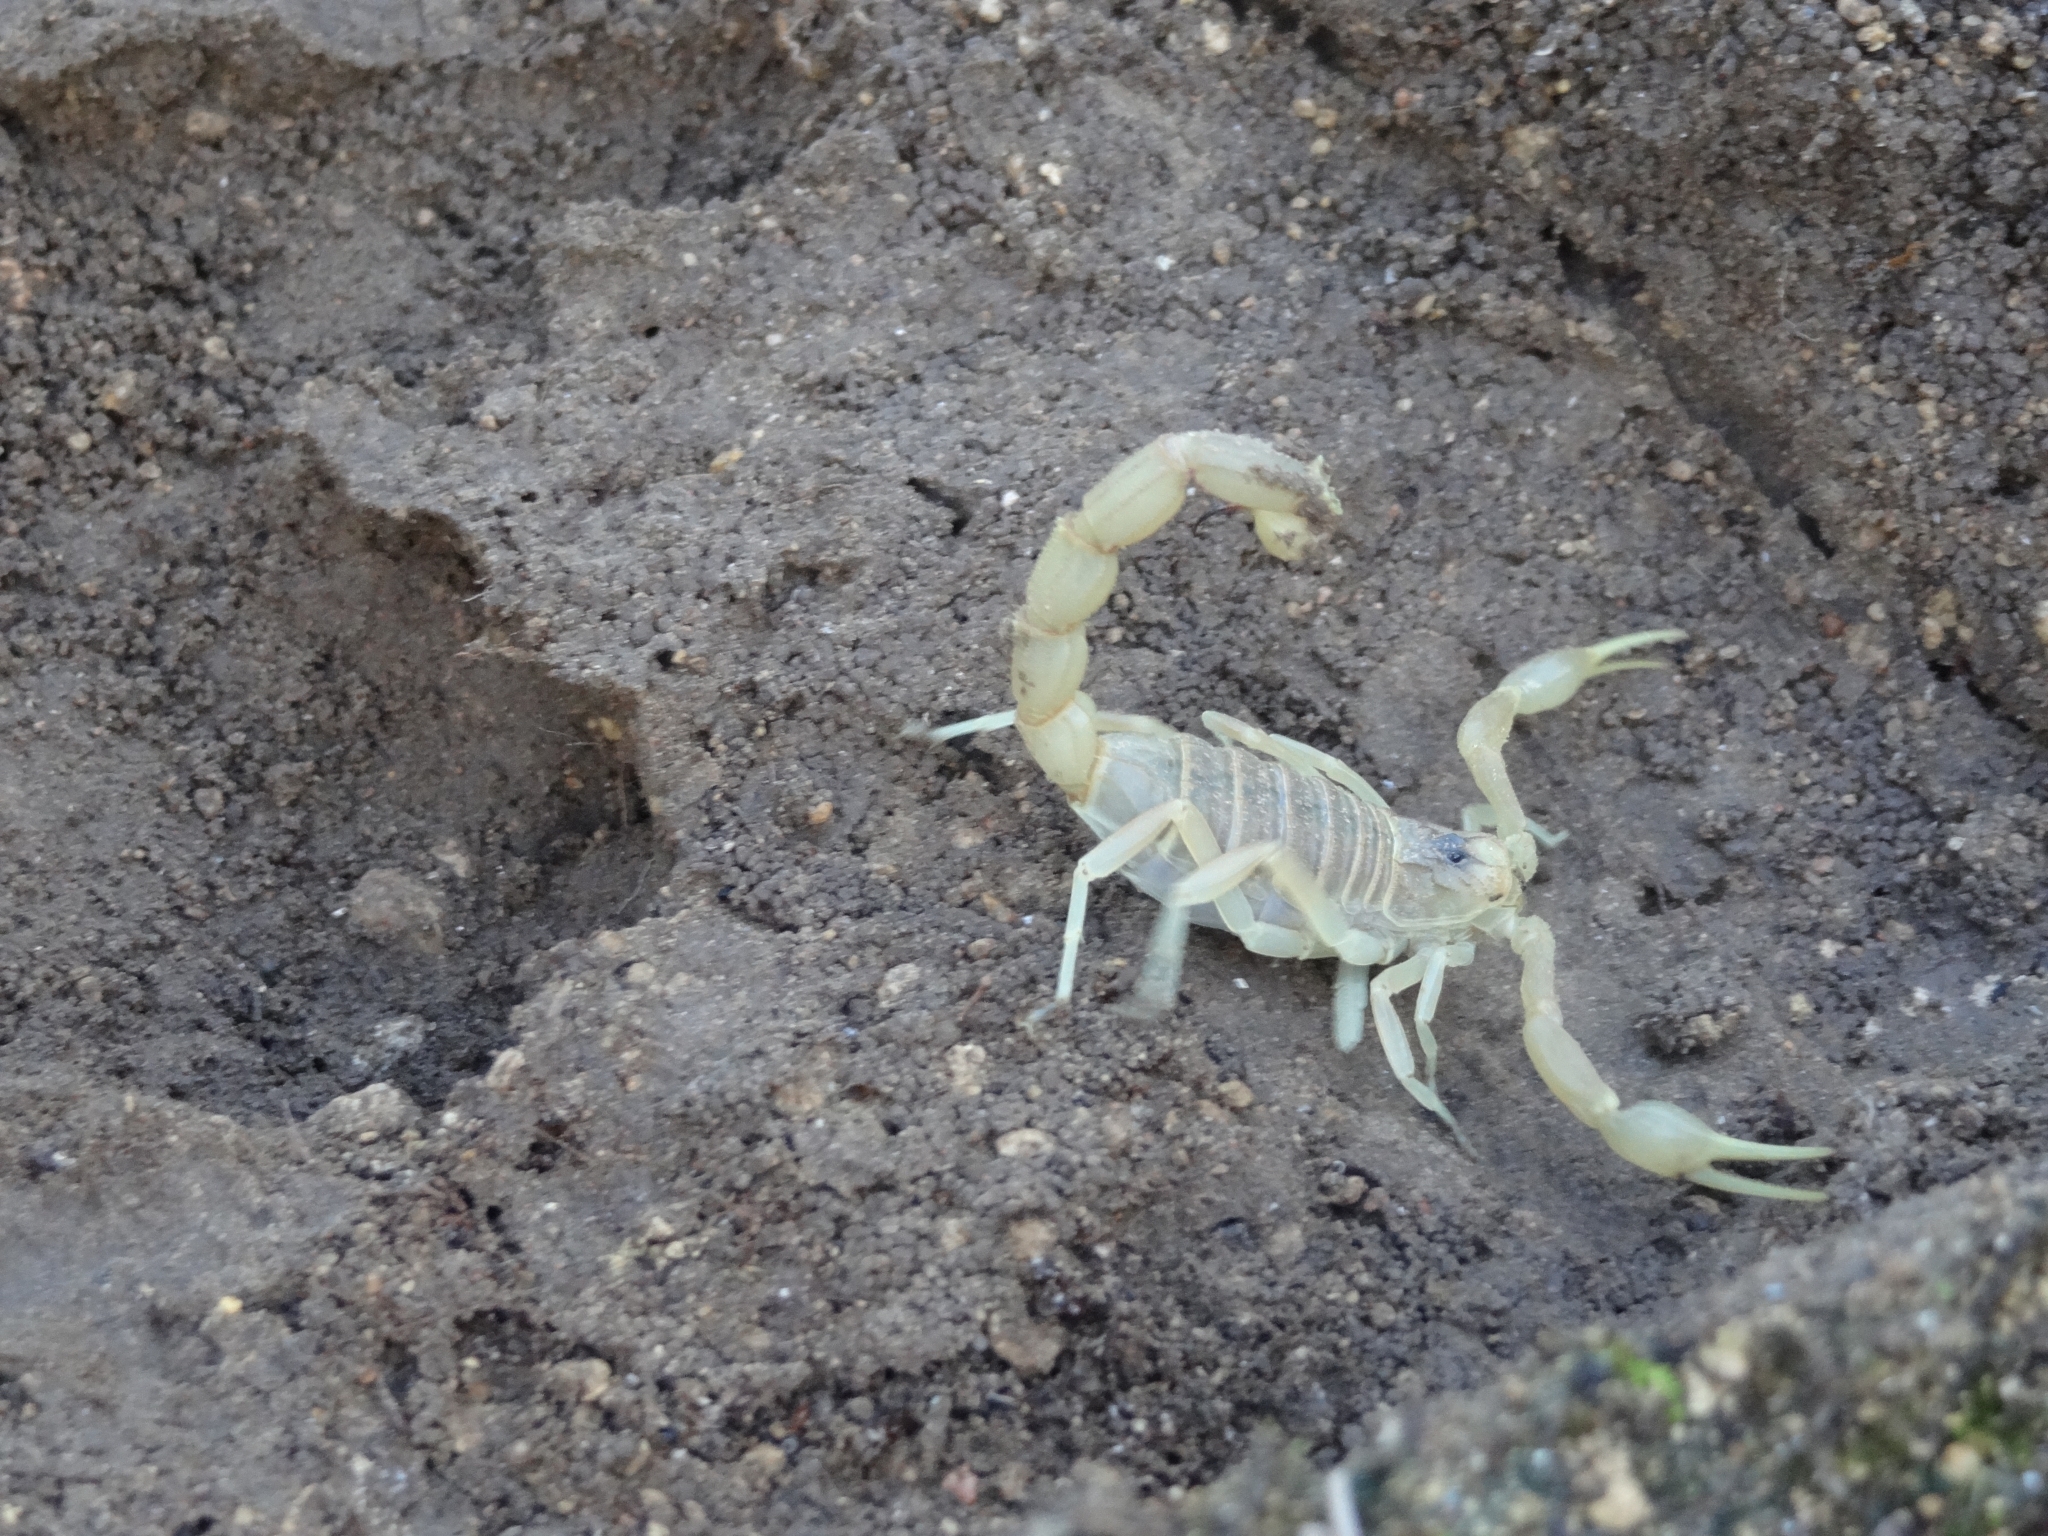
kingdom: Animalia
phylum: Arthropoda
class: Arachnida
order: Scorpiones
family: Buthidae
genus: Buthus
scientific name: Buthus occitanus
